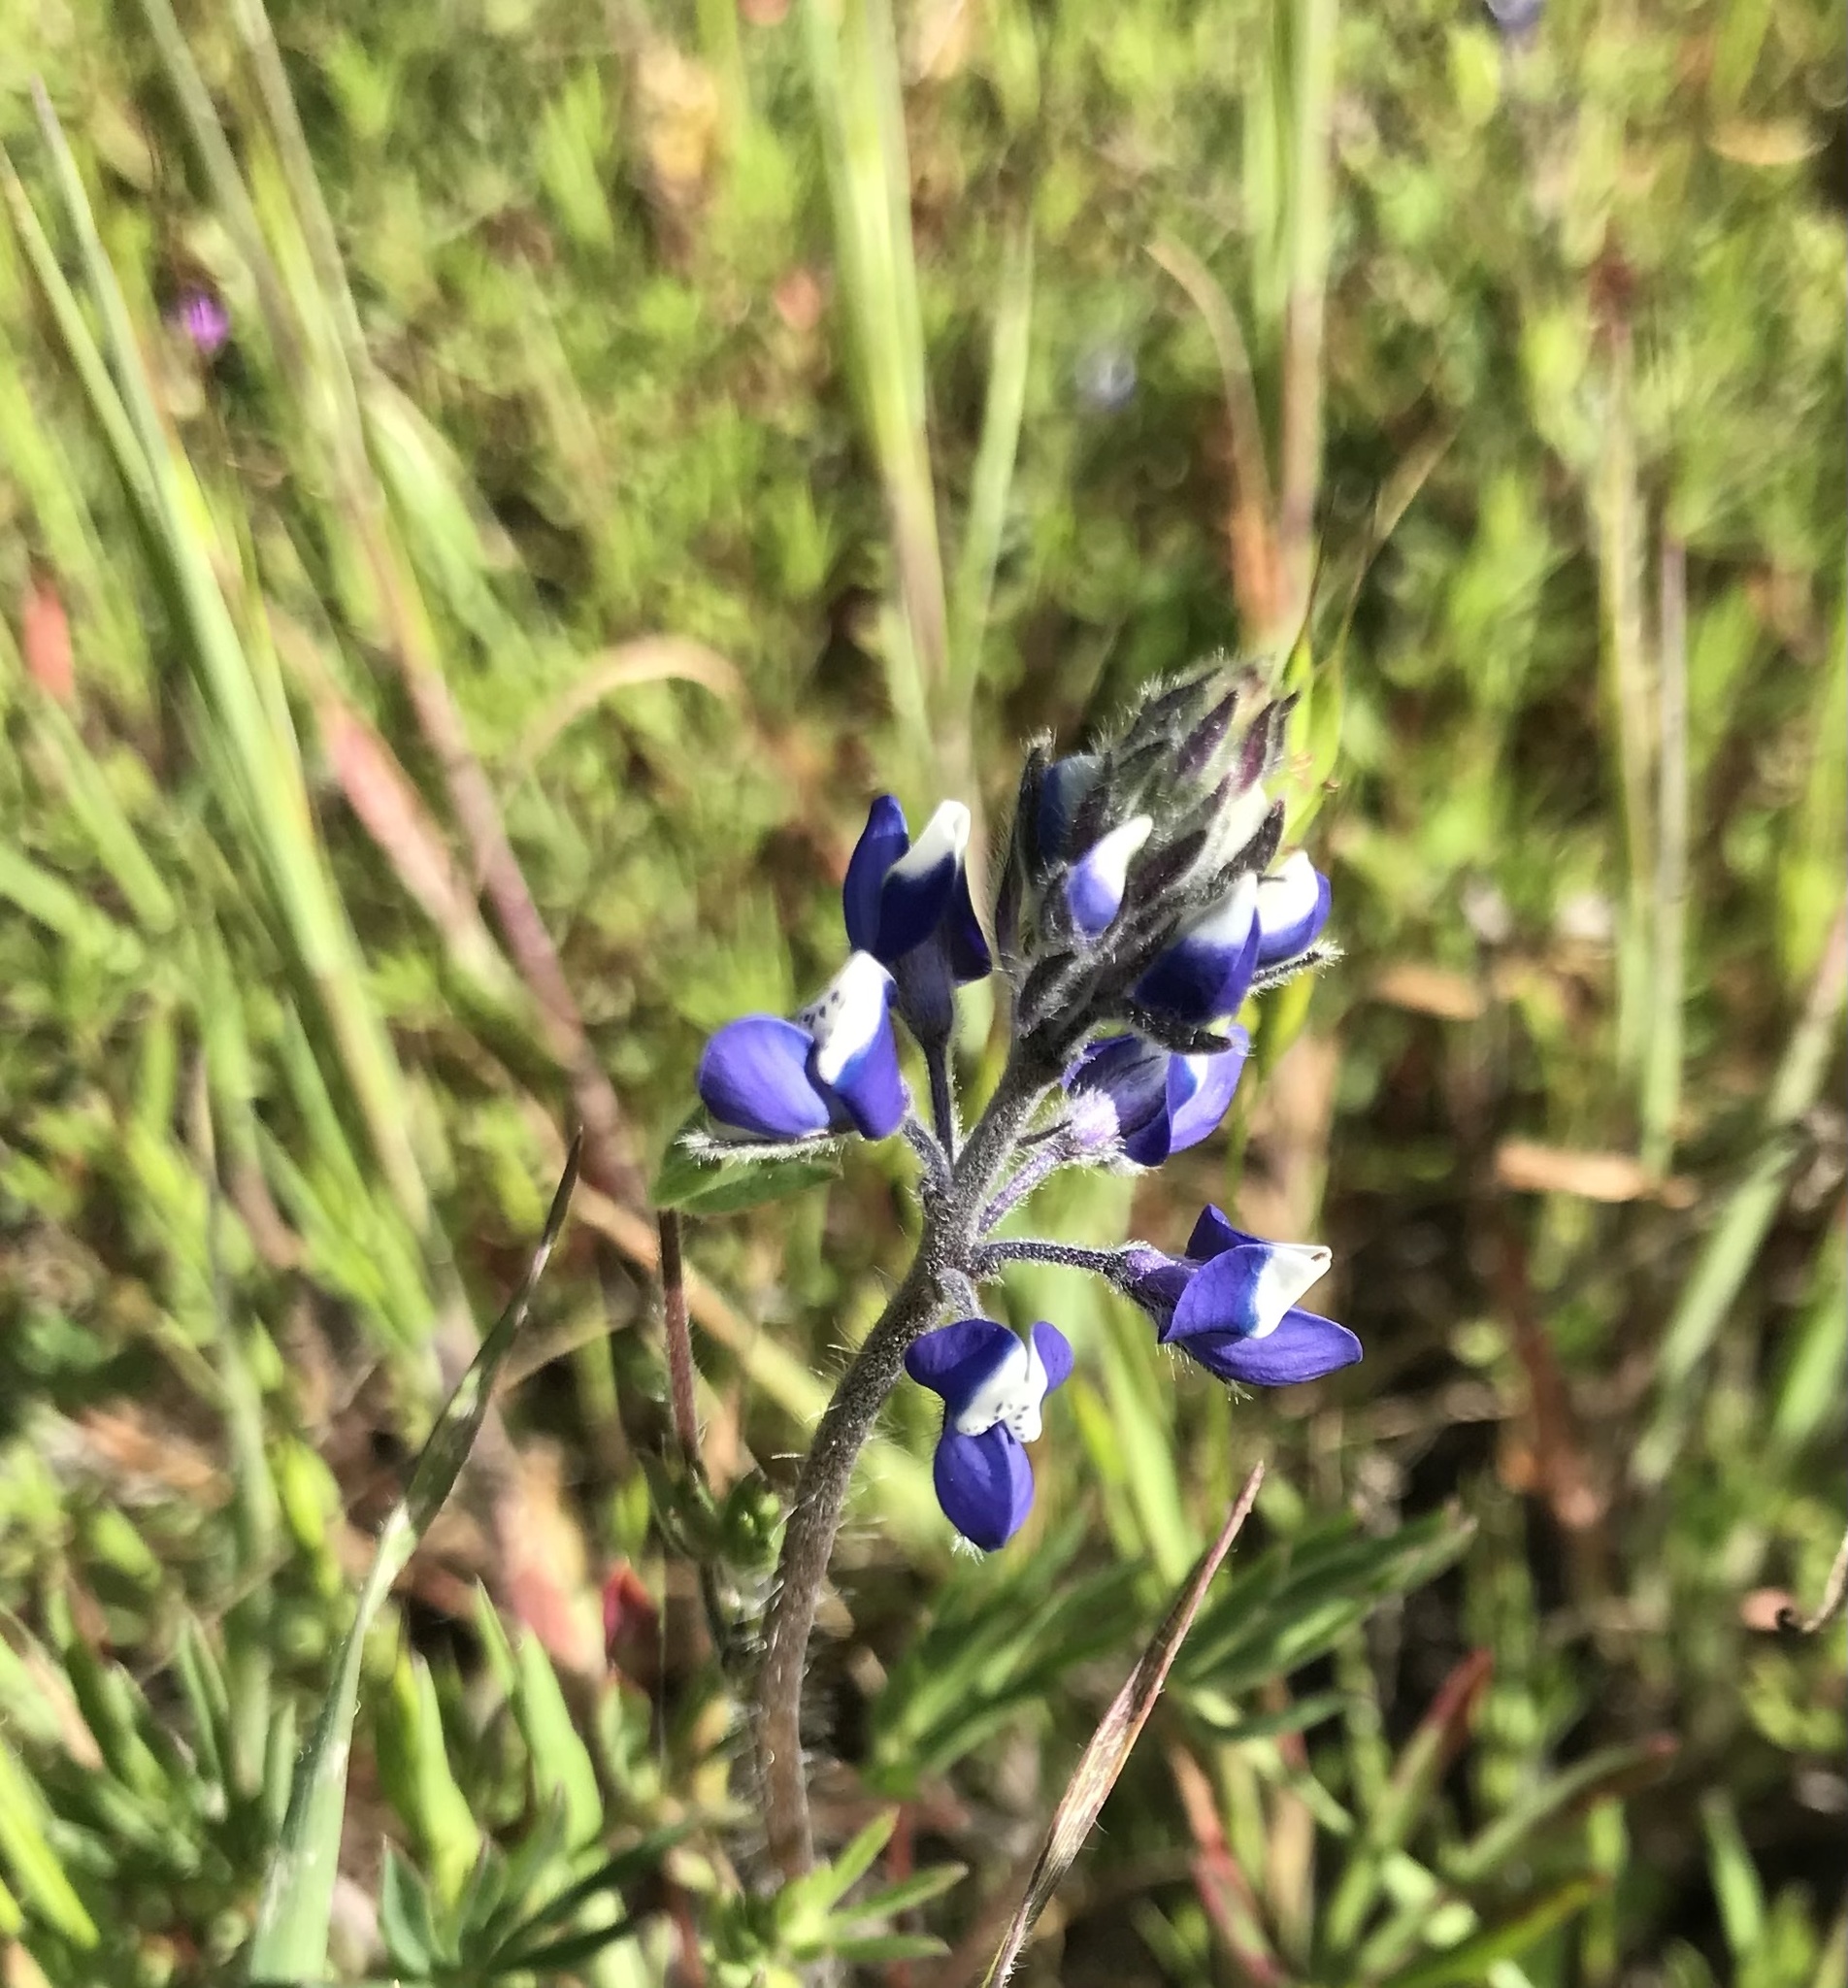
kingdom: Plantae
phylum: Tracheophyta
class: Magnoliopsida
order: Fabales
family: Fabaceae
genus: Lupinus
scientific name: Lupinus bicolor
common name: Miniature lupine
